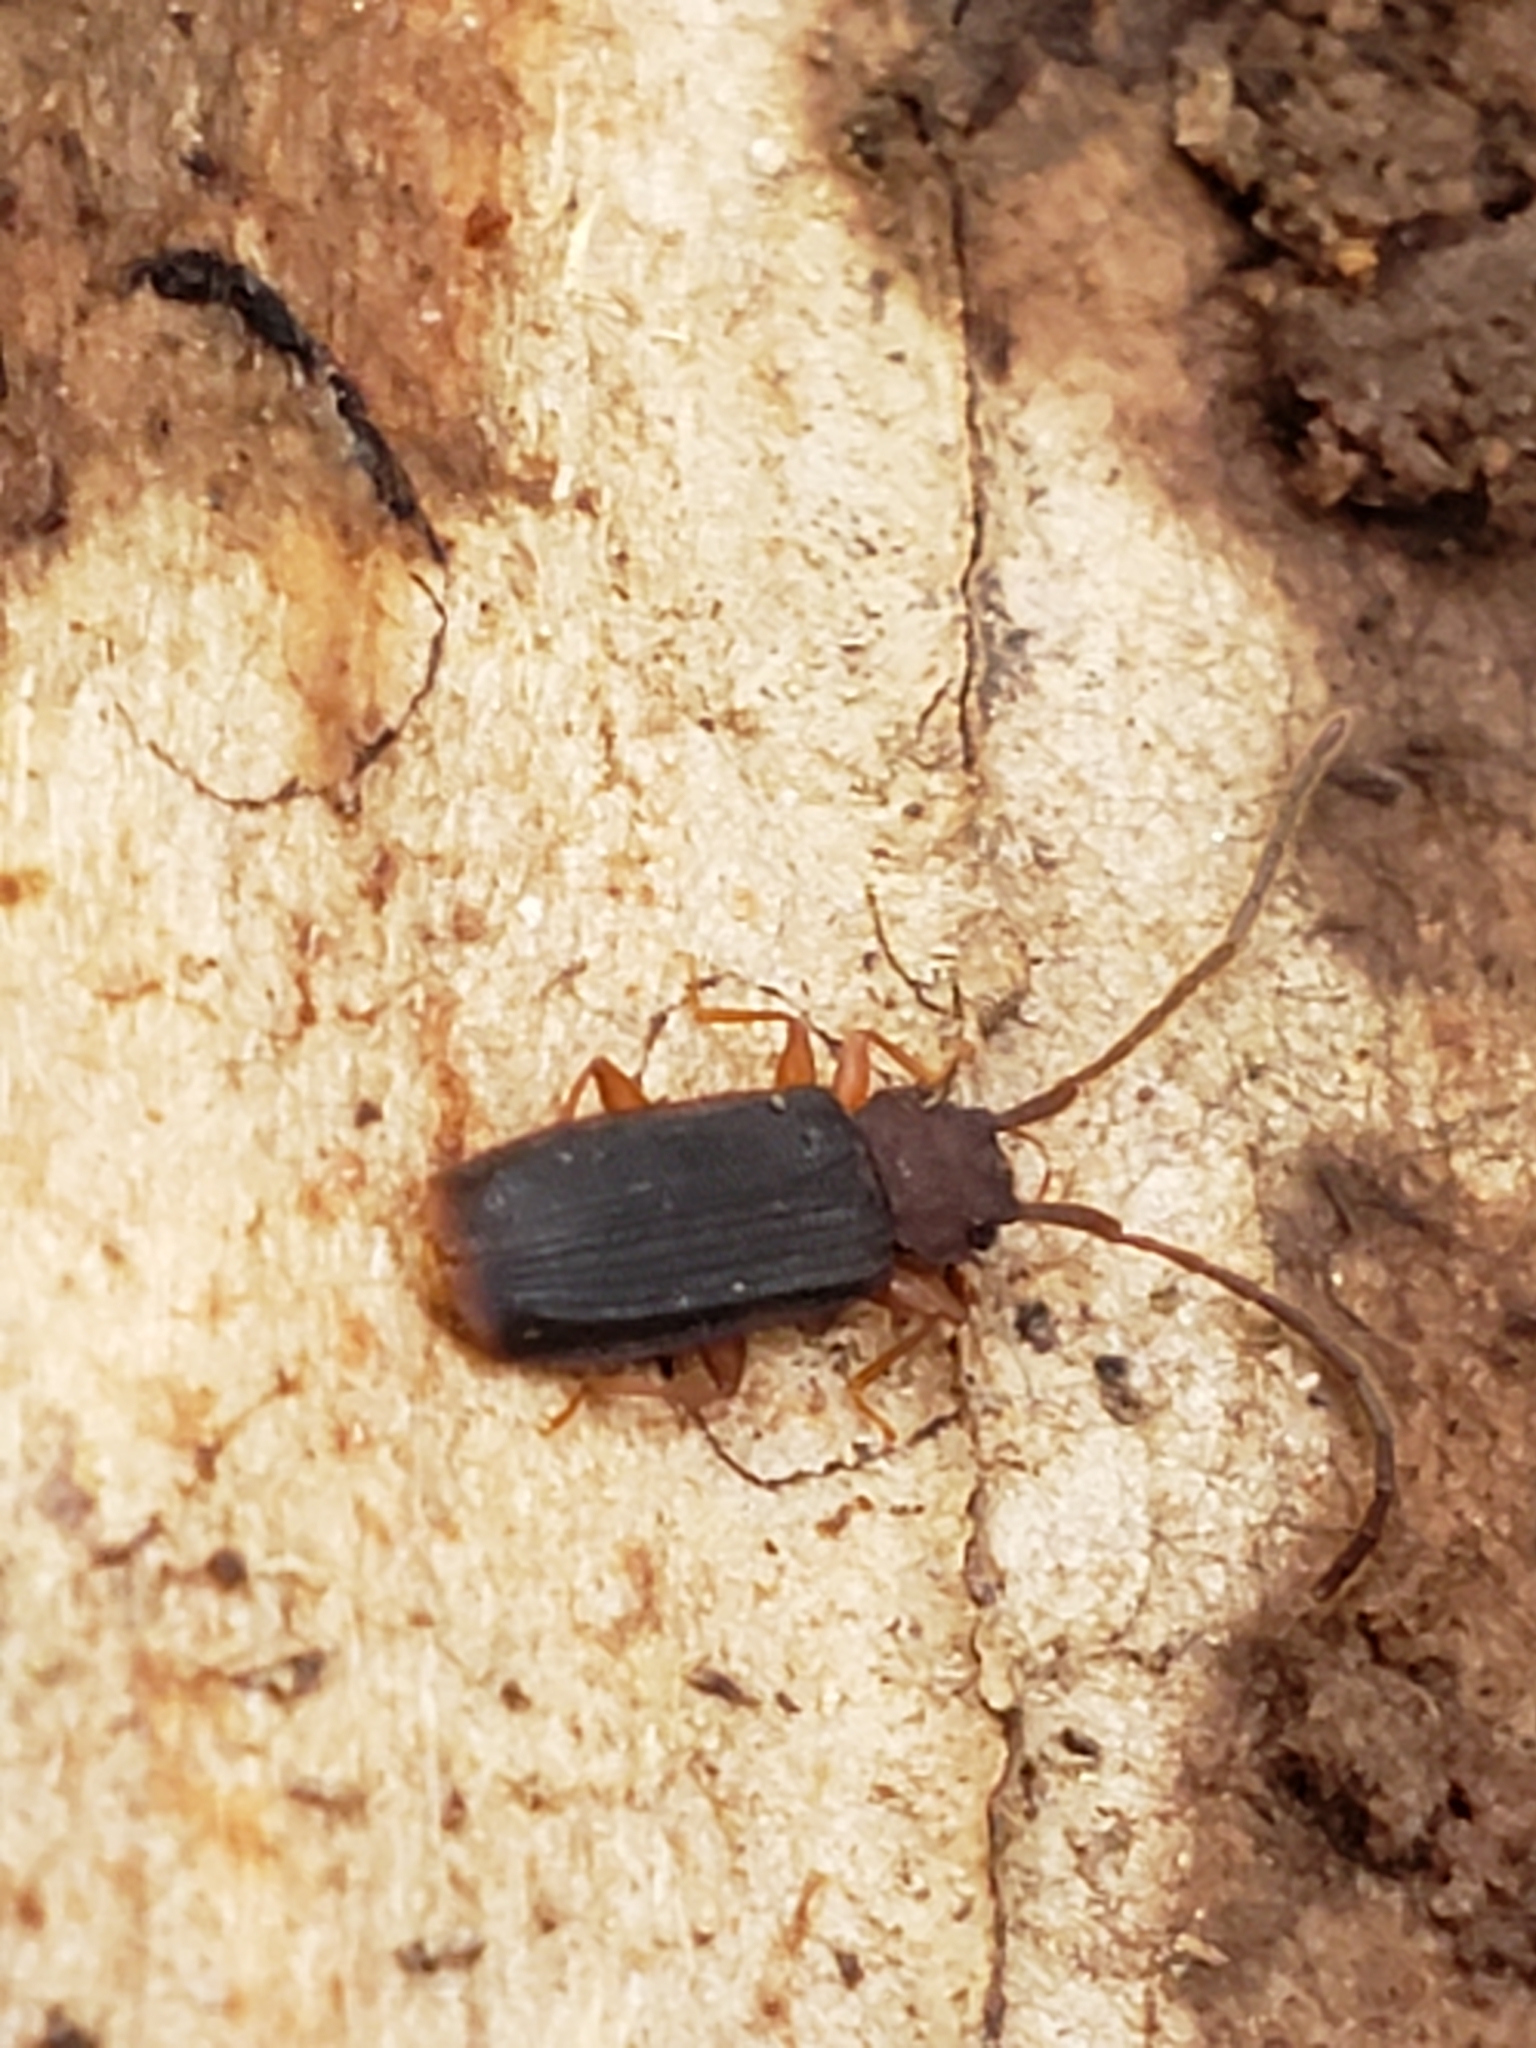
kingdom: Animalia
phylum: Arthropoda
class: Insecta
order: Coleoptera
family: Silvanidae
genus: Uleiota
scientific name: Uleiota dubia
